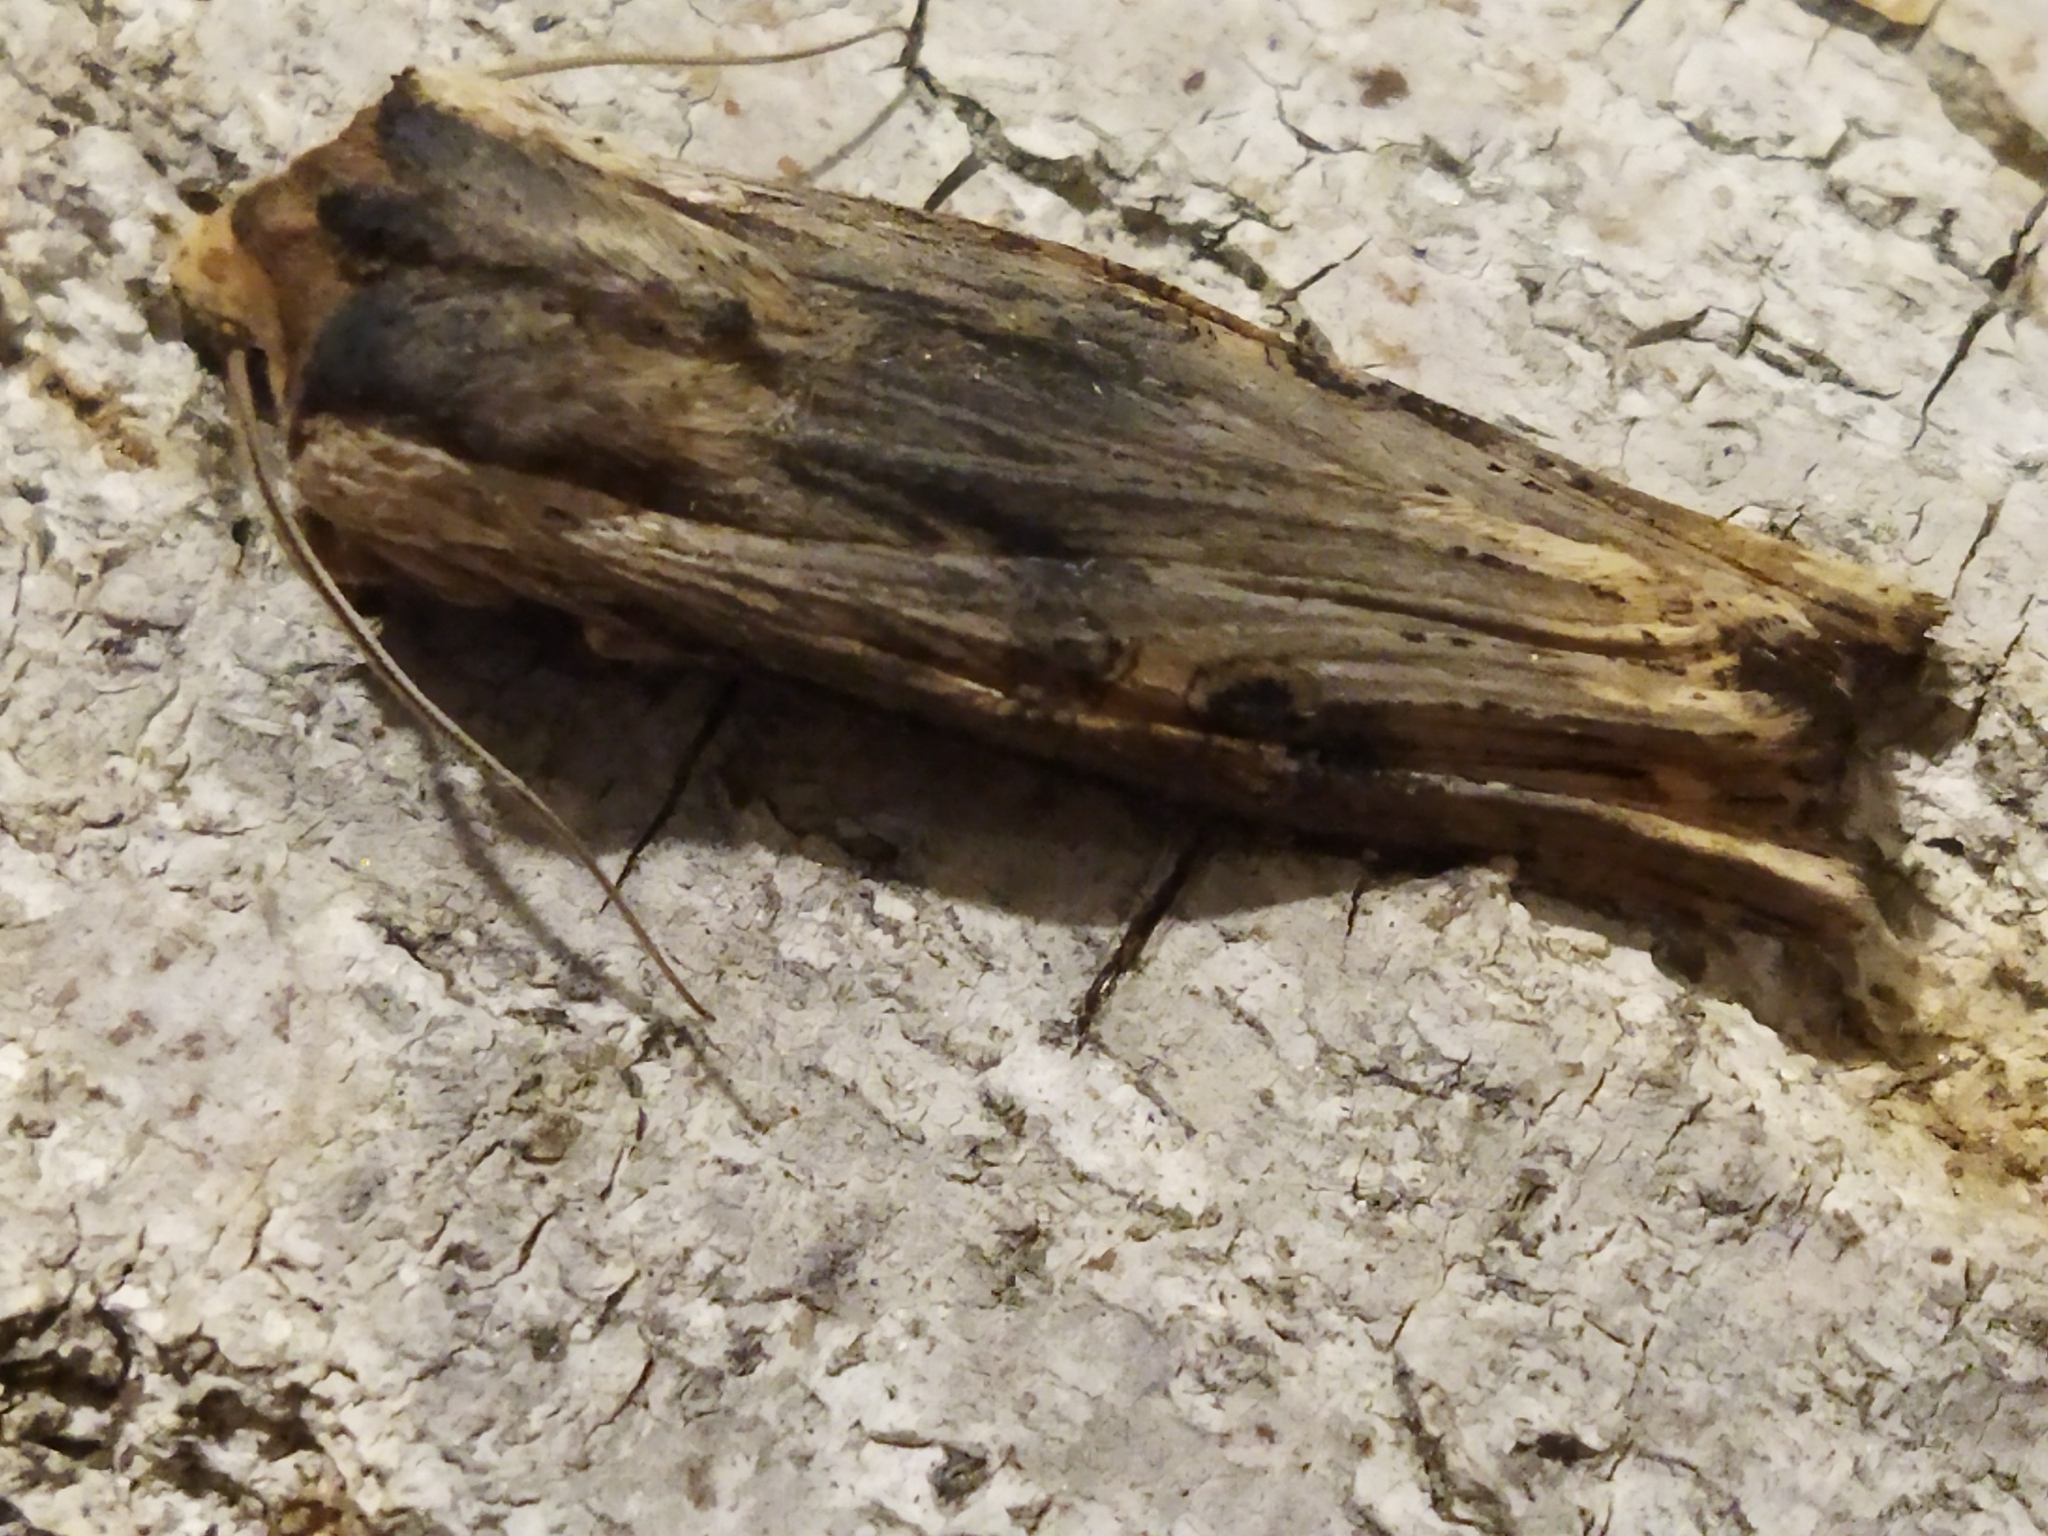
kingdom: Animalia
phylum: Arthropoda
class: Insecta
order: Lepidoptera
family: Noctuidae
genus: Xylena
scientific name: Xylena exsoleta
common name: Sword-grass
